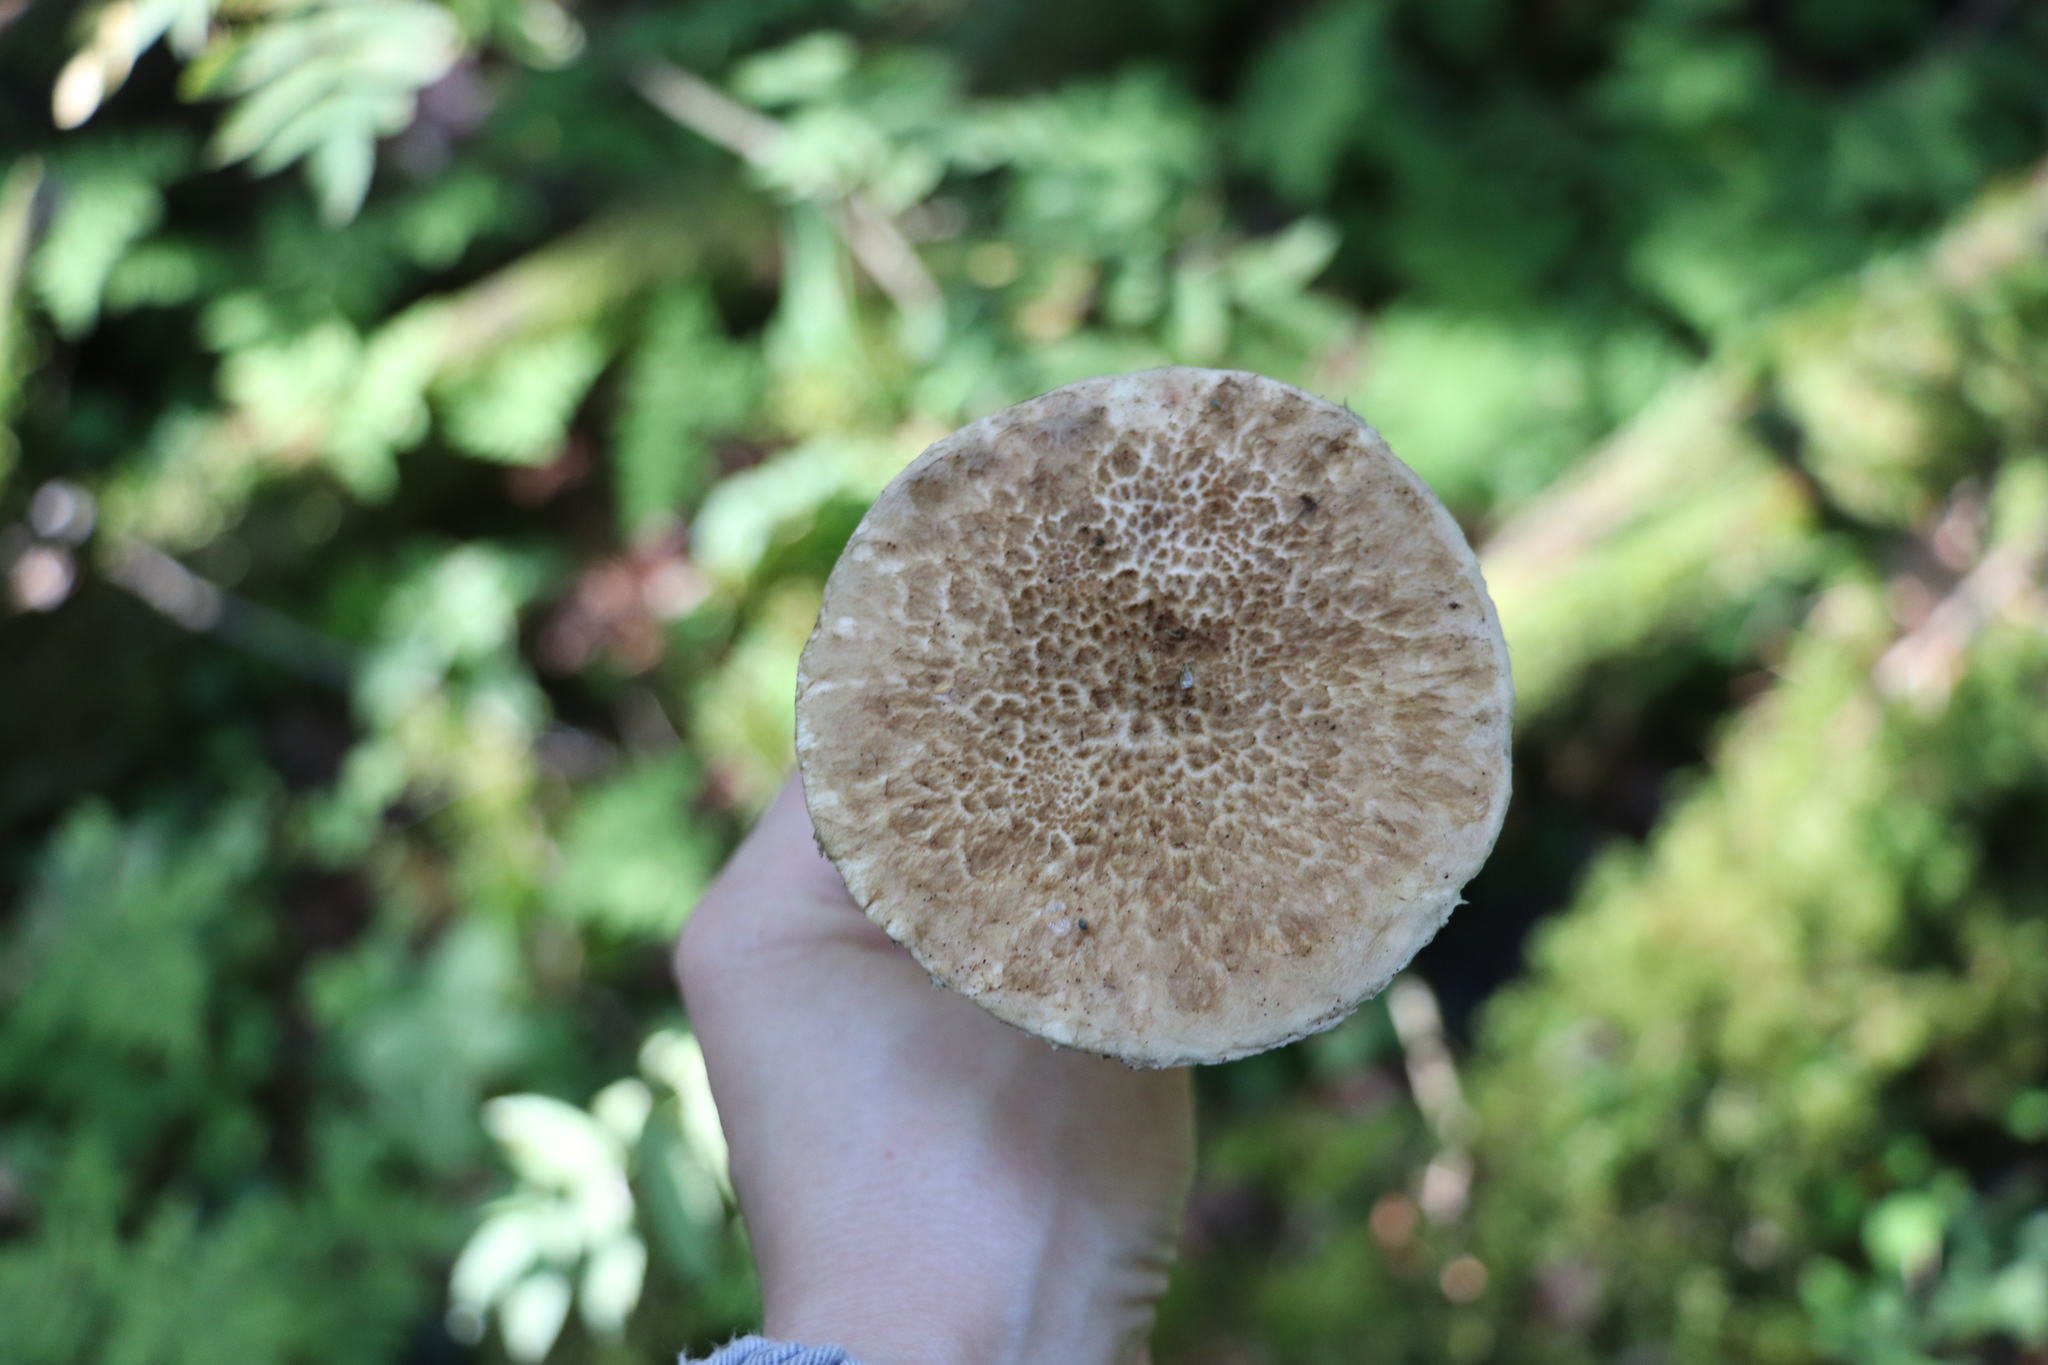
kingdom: Fungi
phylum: Basidiomycota
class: Agaricomycetes
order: Boletales
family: Suillaceae
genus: Suillus
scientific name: Suillus spraguei
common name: Painted suillus
